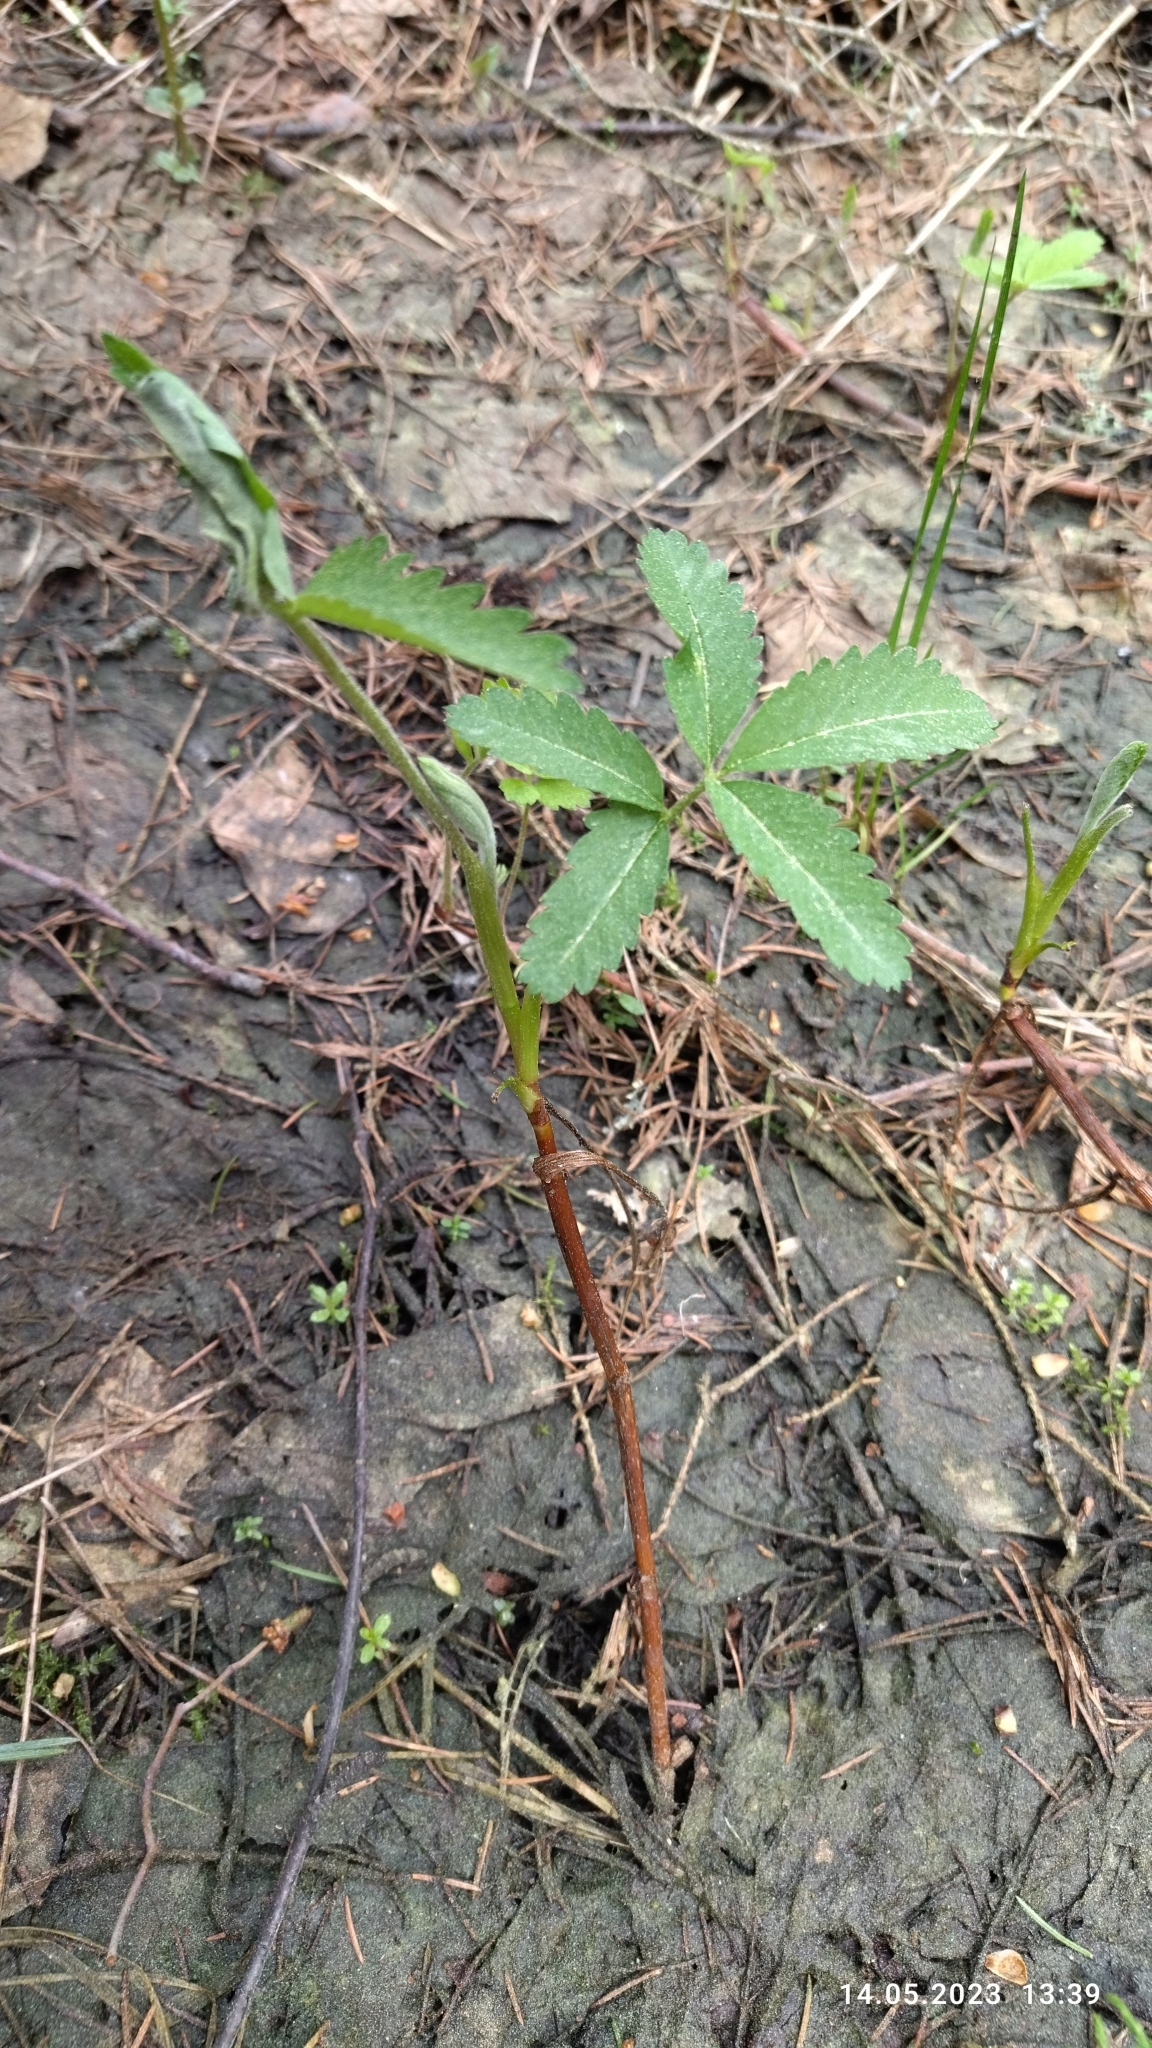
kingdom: Plantae
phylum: Tracheophyta
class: Magnoliopsida
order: Rosales
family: Rosaceae
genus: Comarum
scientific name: Comarum palustre
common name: Marsh cinquefoil
